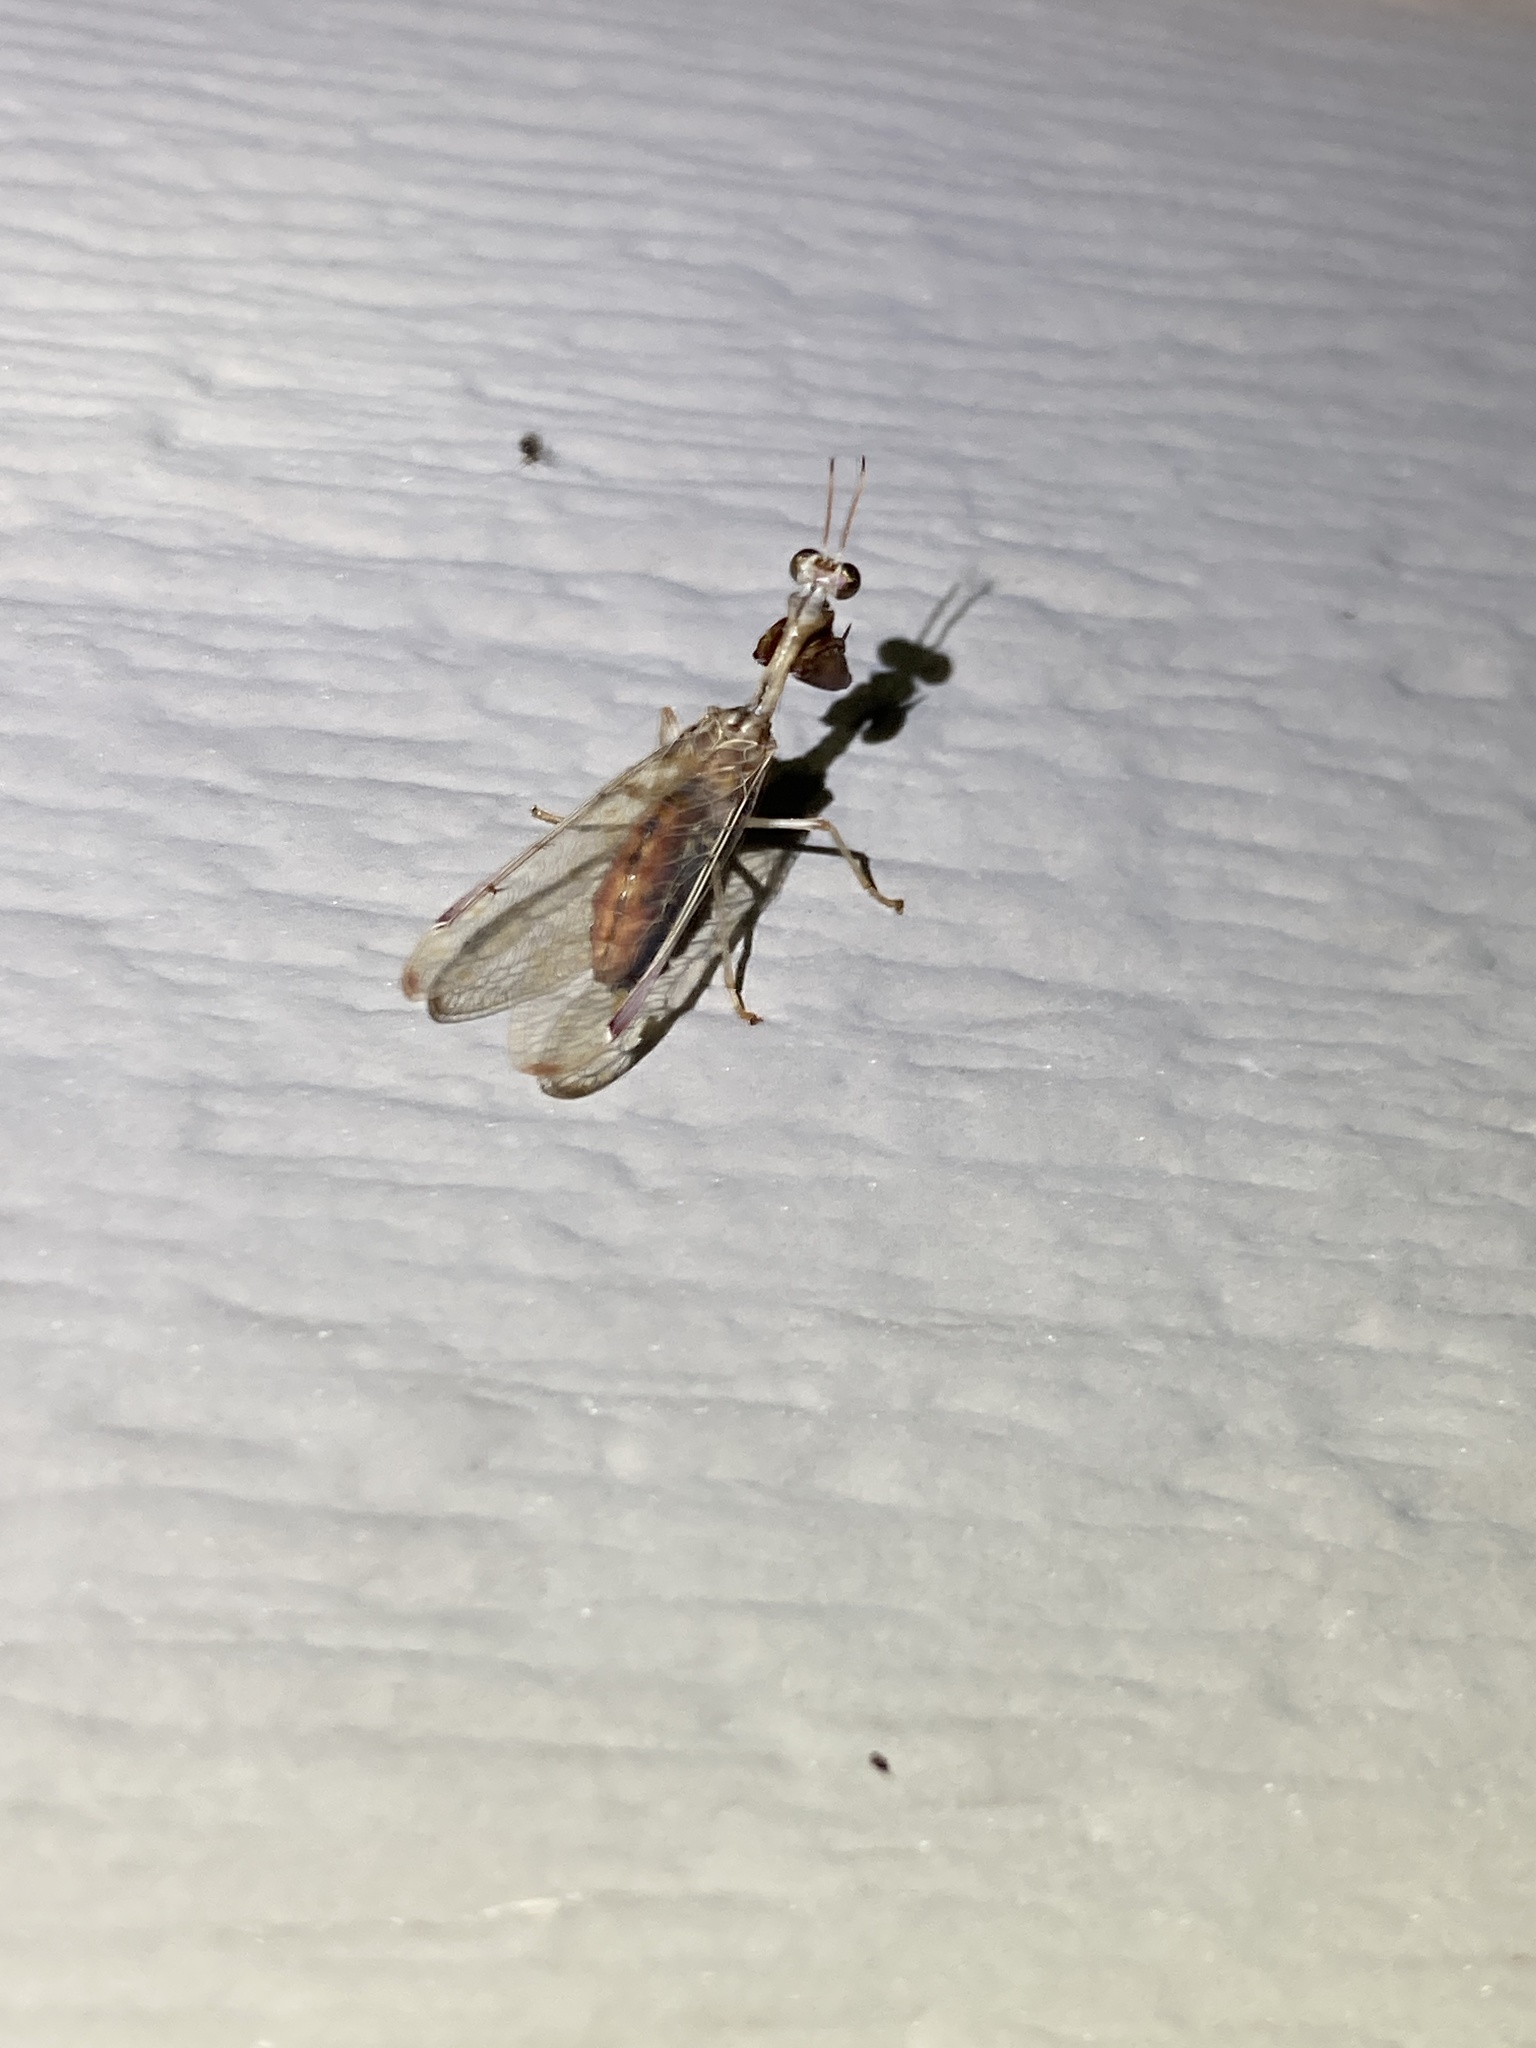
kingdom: Animalia
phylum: Arthropoda
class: Insecta
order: Neuroptera
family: Mantispidae
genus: Dicromantispa
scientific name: Dicromantispa interrupta
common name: Four-spotted mantidfly
